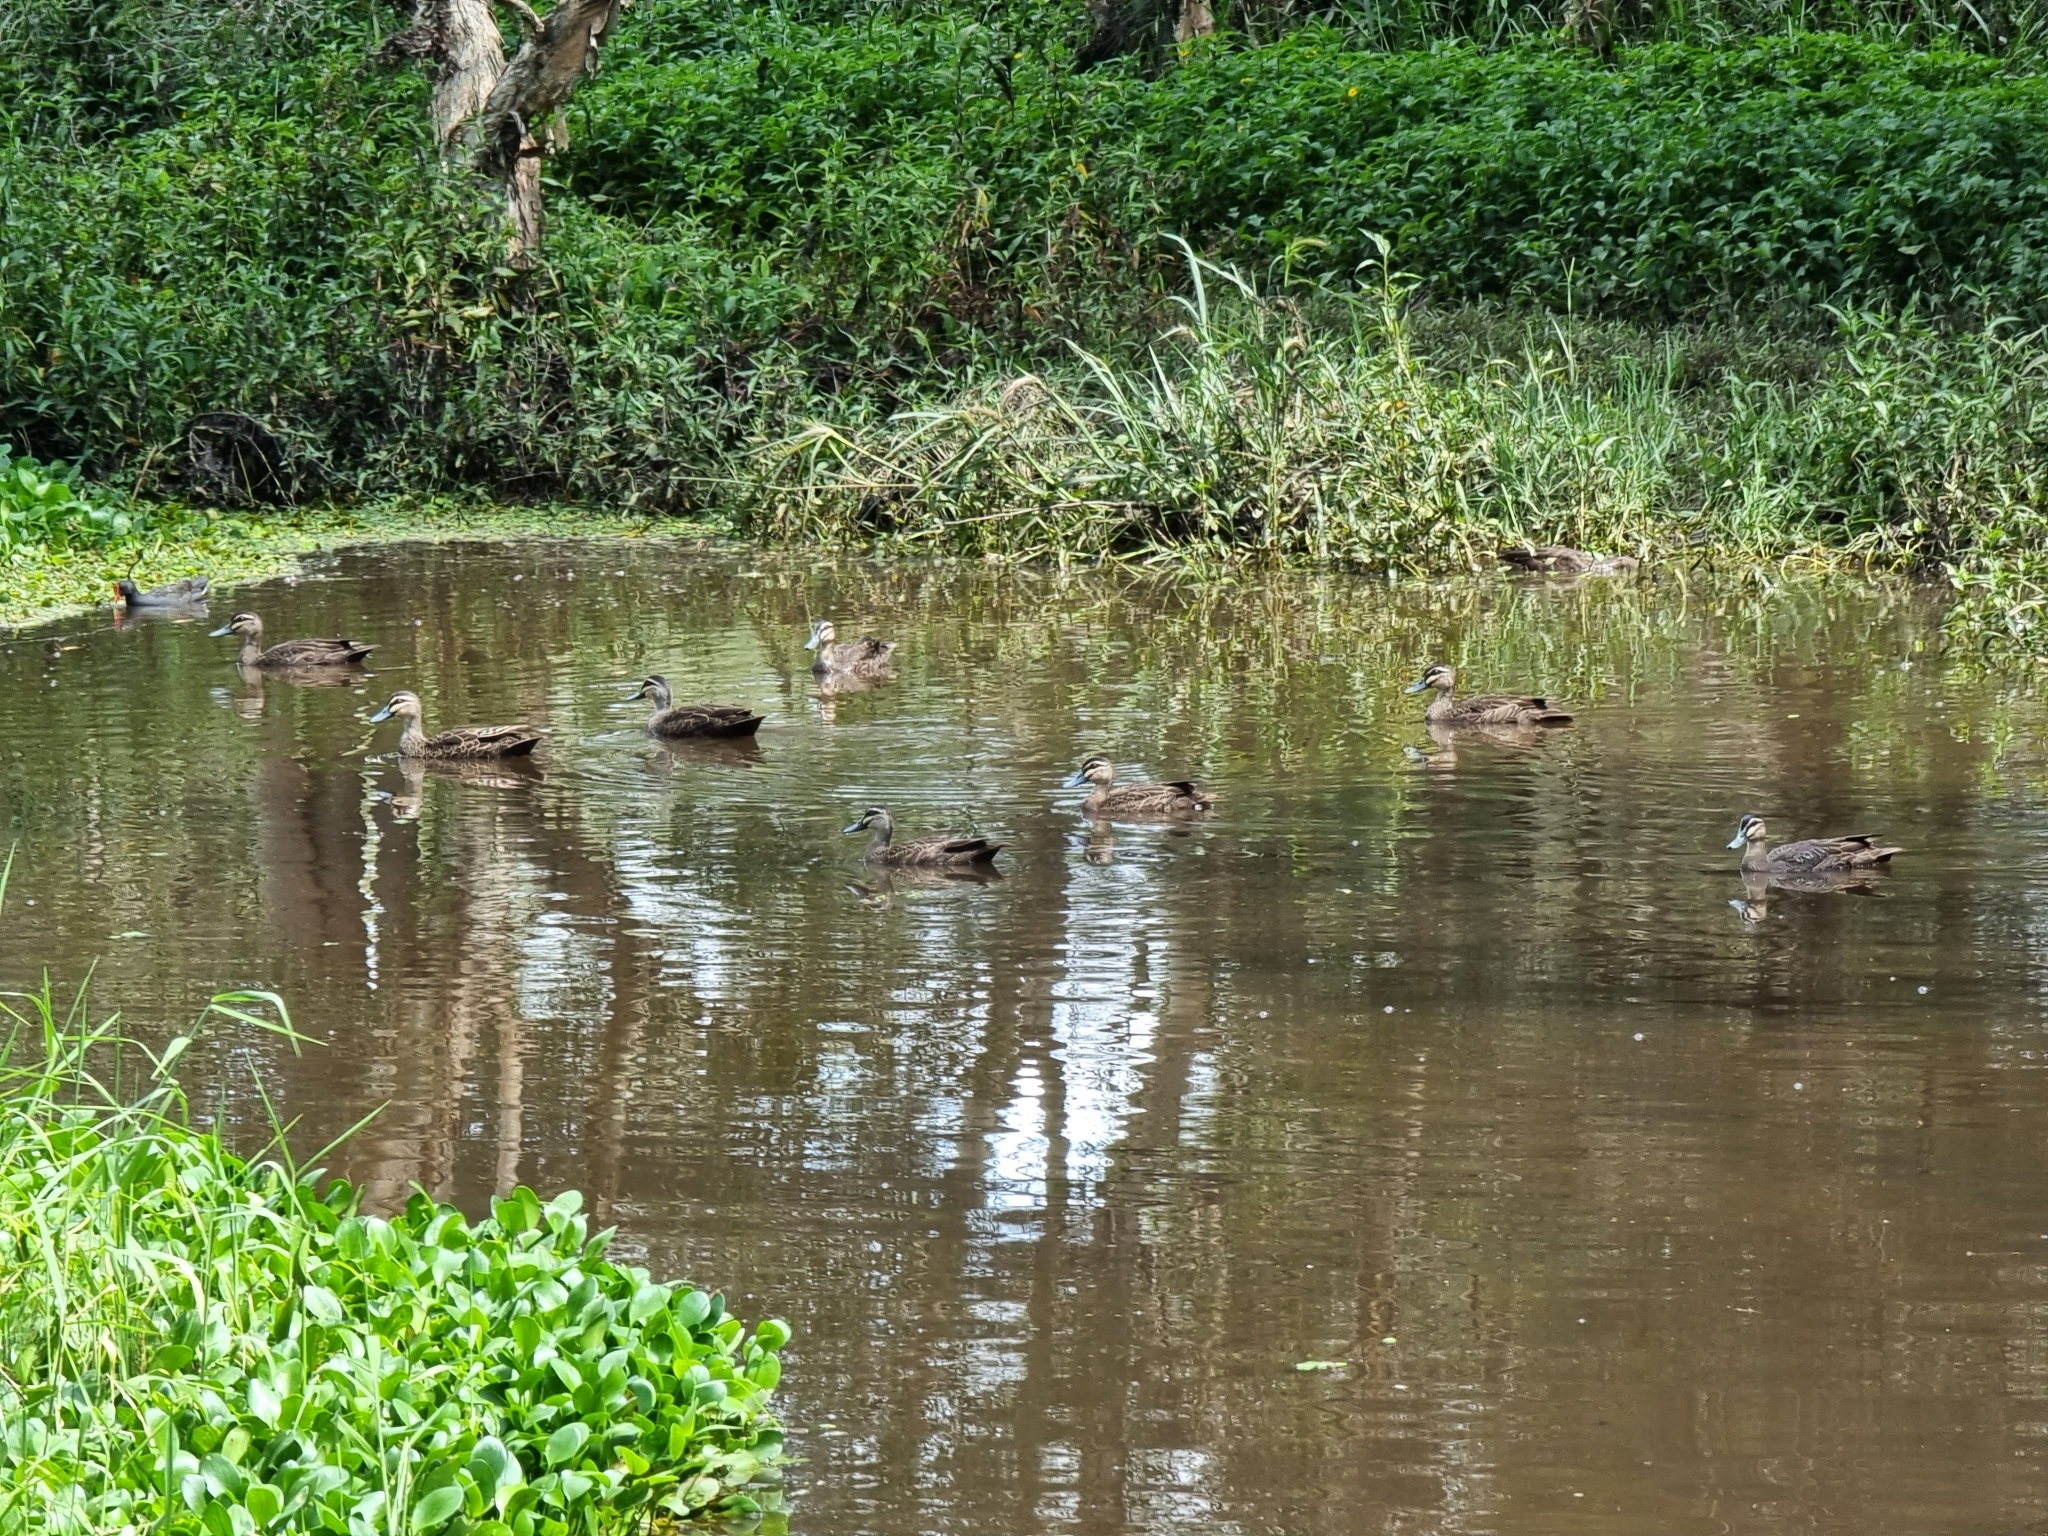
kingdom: Animalia
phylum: Chordata
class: Aves
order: Anseriformes
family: Anatidae
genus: Anas
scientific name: Anas superciliosa
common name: Pacific black duck
